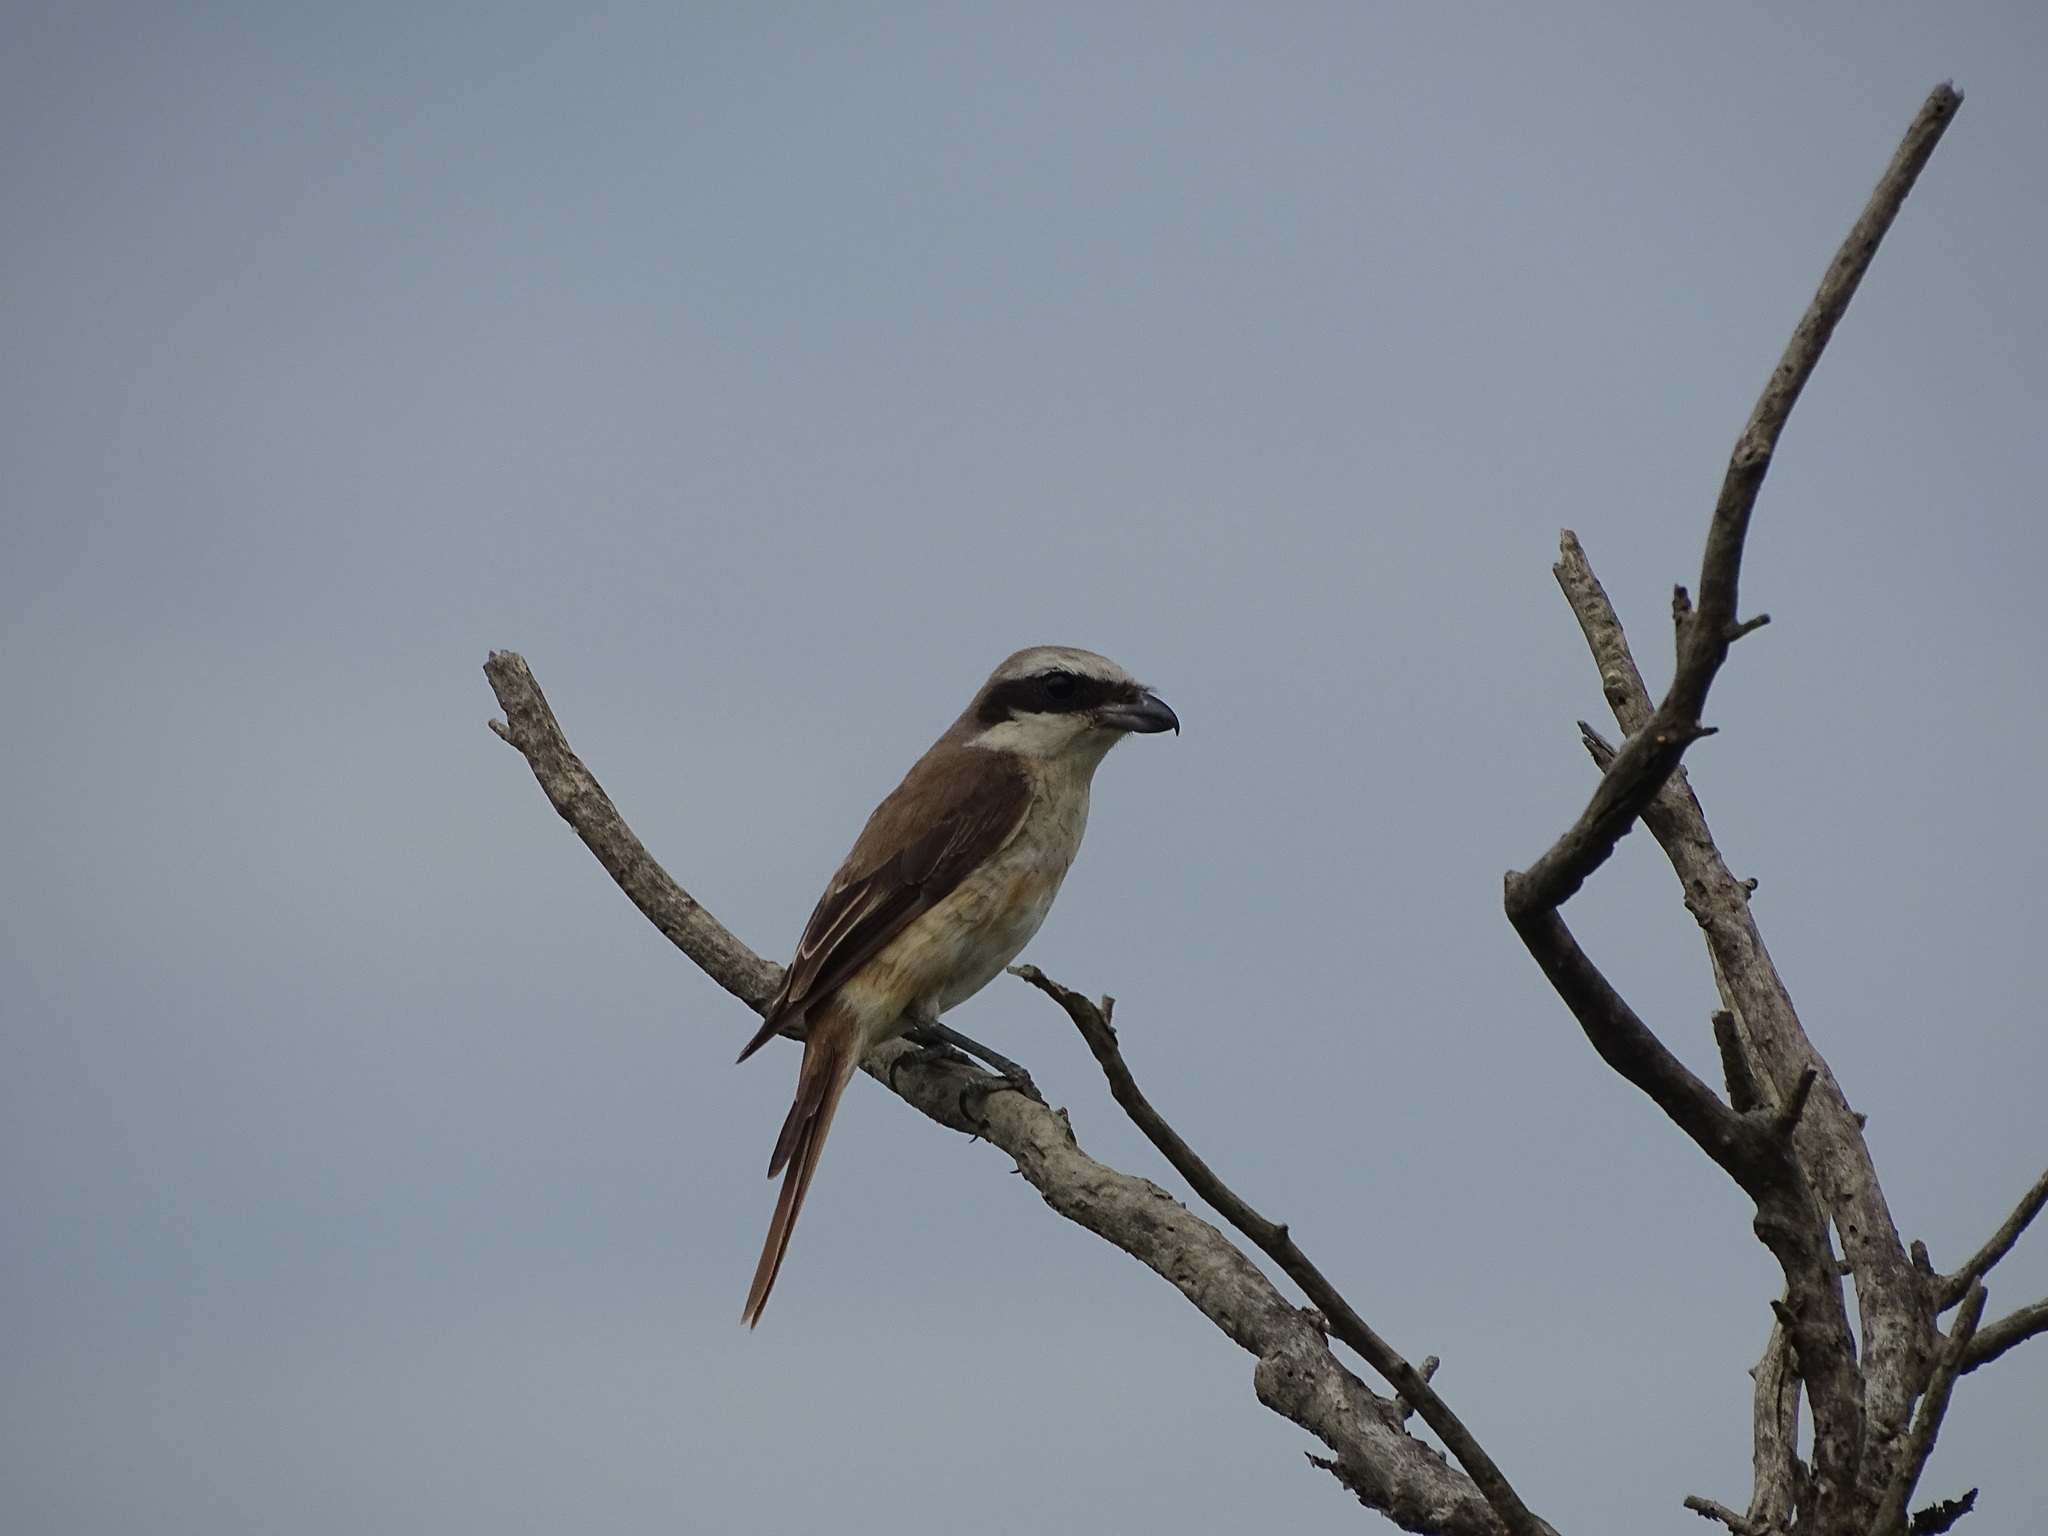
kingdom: Animalia
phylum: Chordata
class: Aves
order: Passeriformes
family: Laniidae
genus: Lanius
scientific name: Lanius cristatus
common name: Brown shrike
